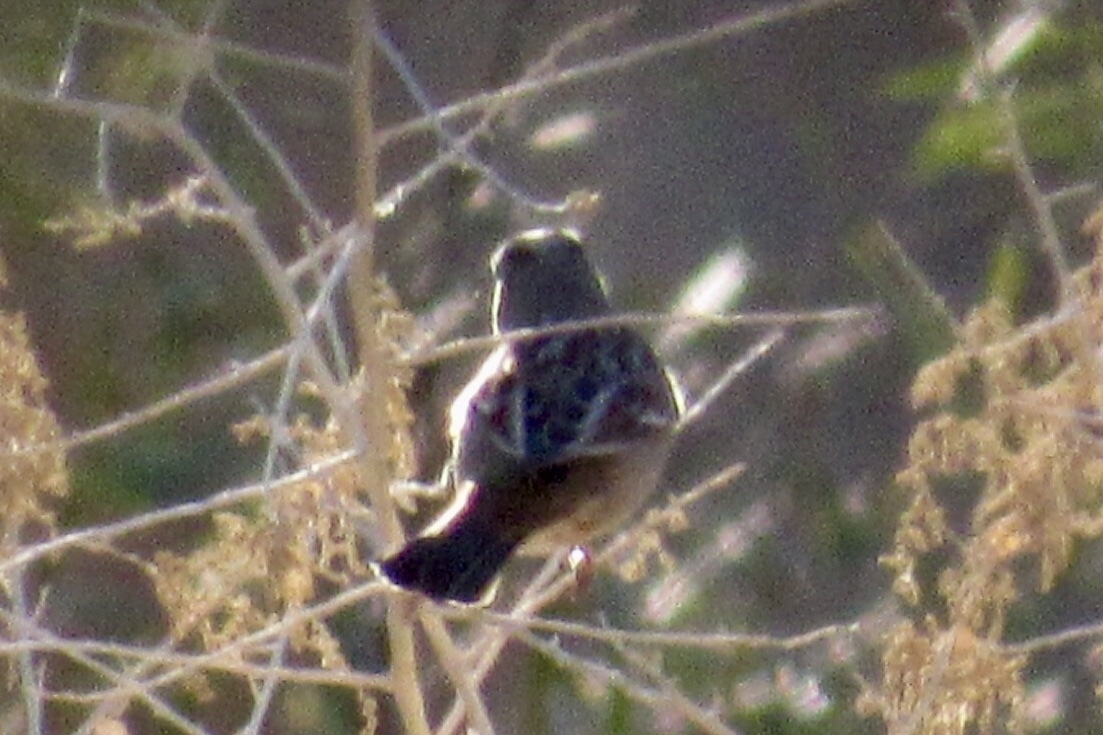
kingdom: Animalia
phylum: Chordata
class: Aves
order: Passeriformes
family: Passerellidae
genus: Zonotrichia
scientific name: Zonotrichia leucophrys
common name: White-crowned sparrow
